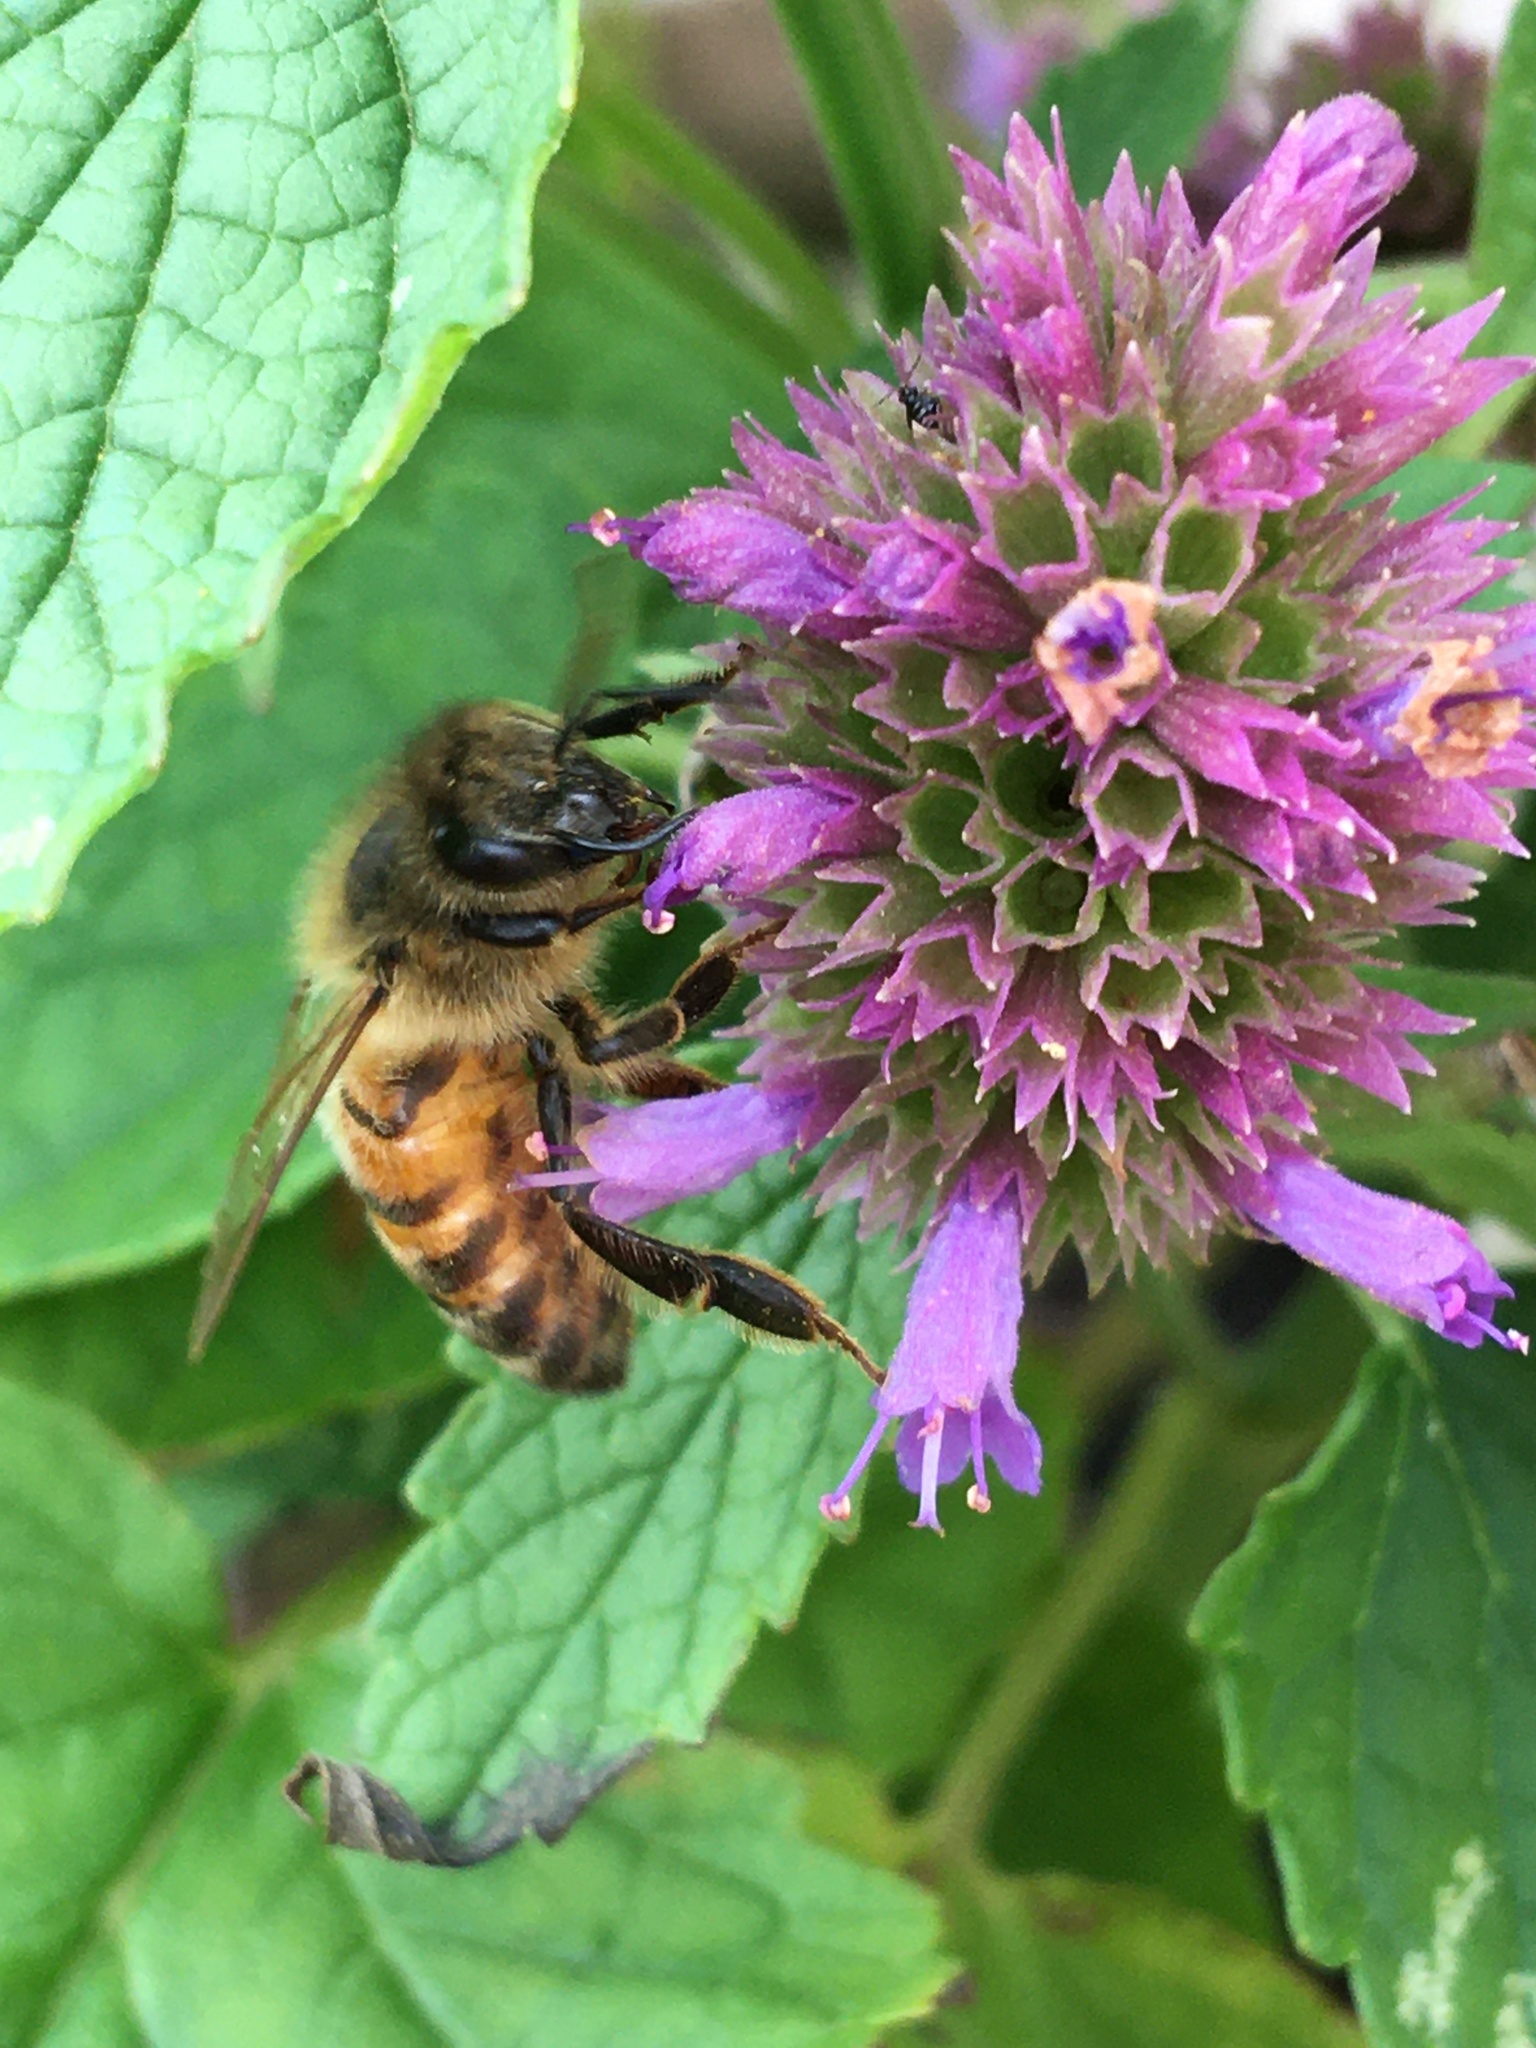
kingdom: Animalia
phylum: Arthropoda
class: Insecta
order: Hymenoptera
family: Apidae
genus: Apis
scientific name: Apis mellifera
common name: Honey bee
